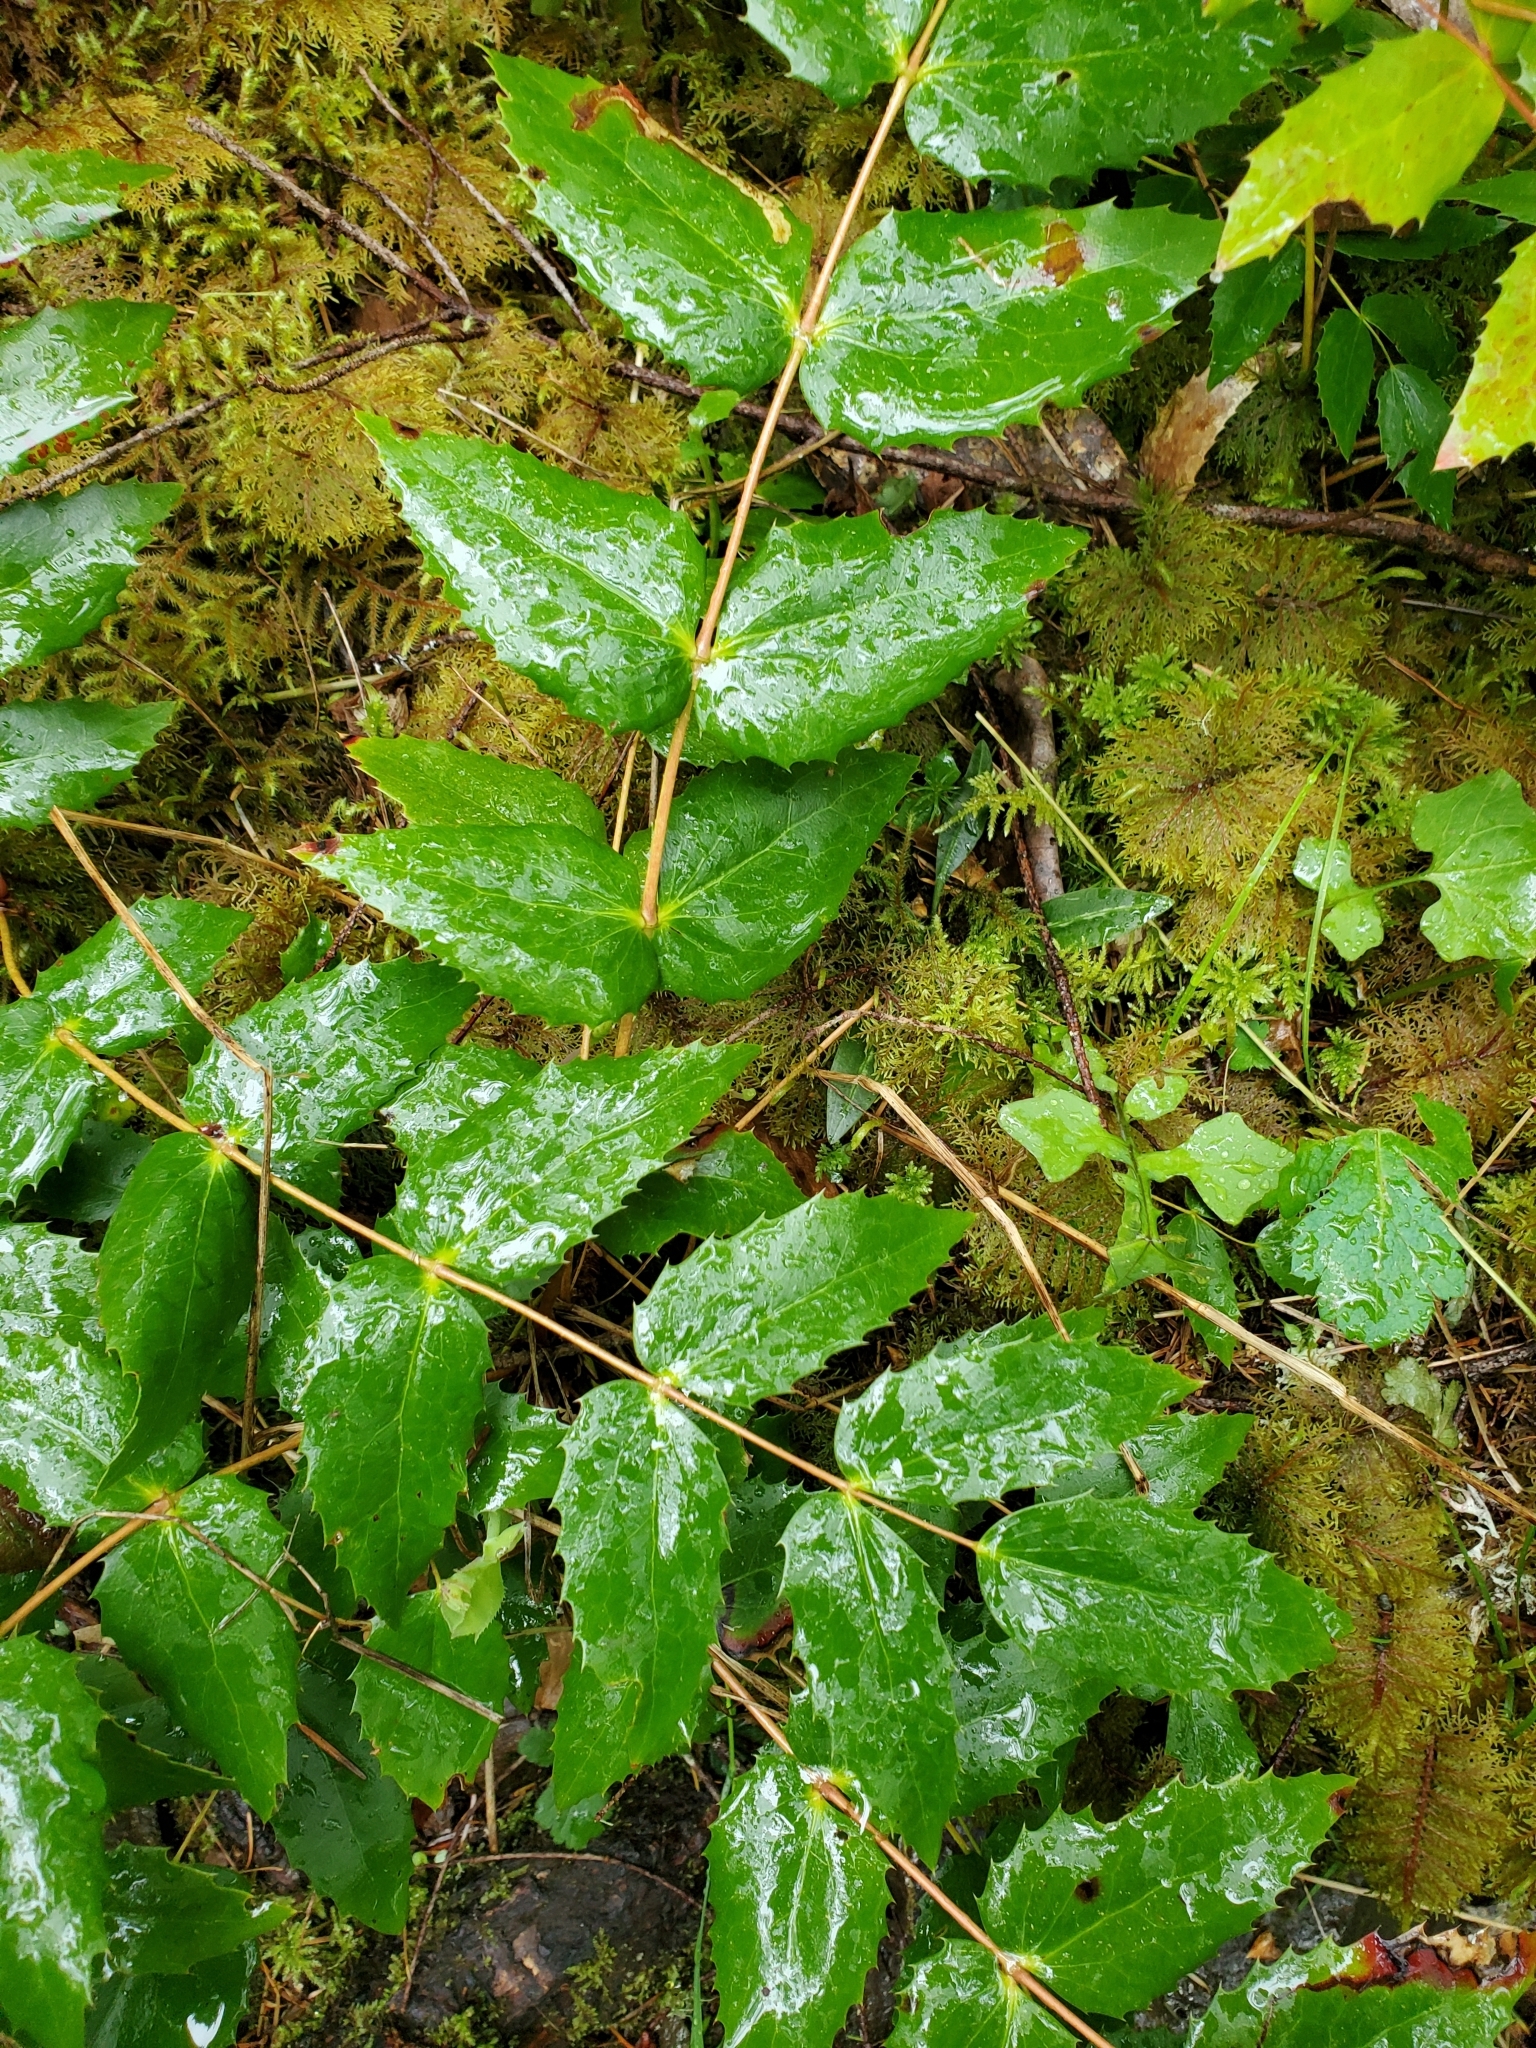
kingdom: Plantae
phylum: Tracheophyta
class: Magnoliopsida
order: Ranunculales
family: Berberidaceae
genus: Mahonia
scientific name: Mahonia nervosa
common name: Cascade oregon-grape
